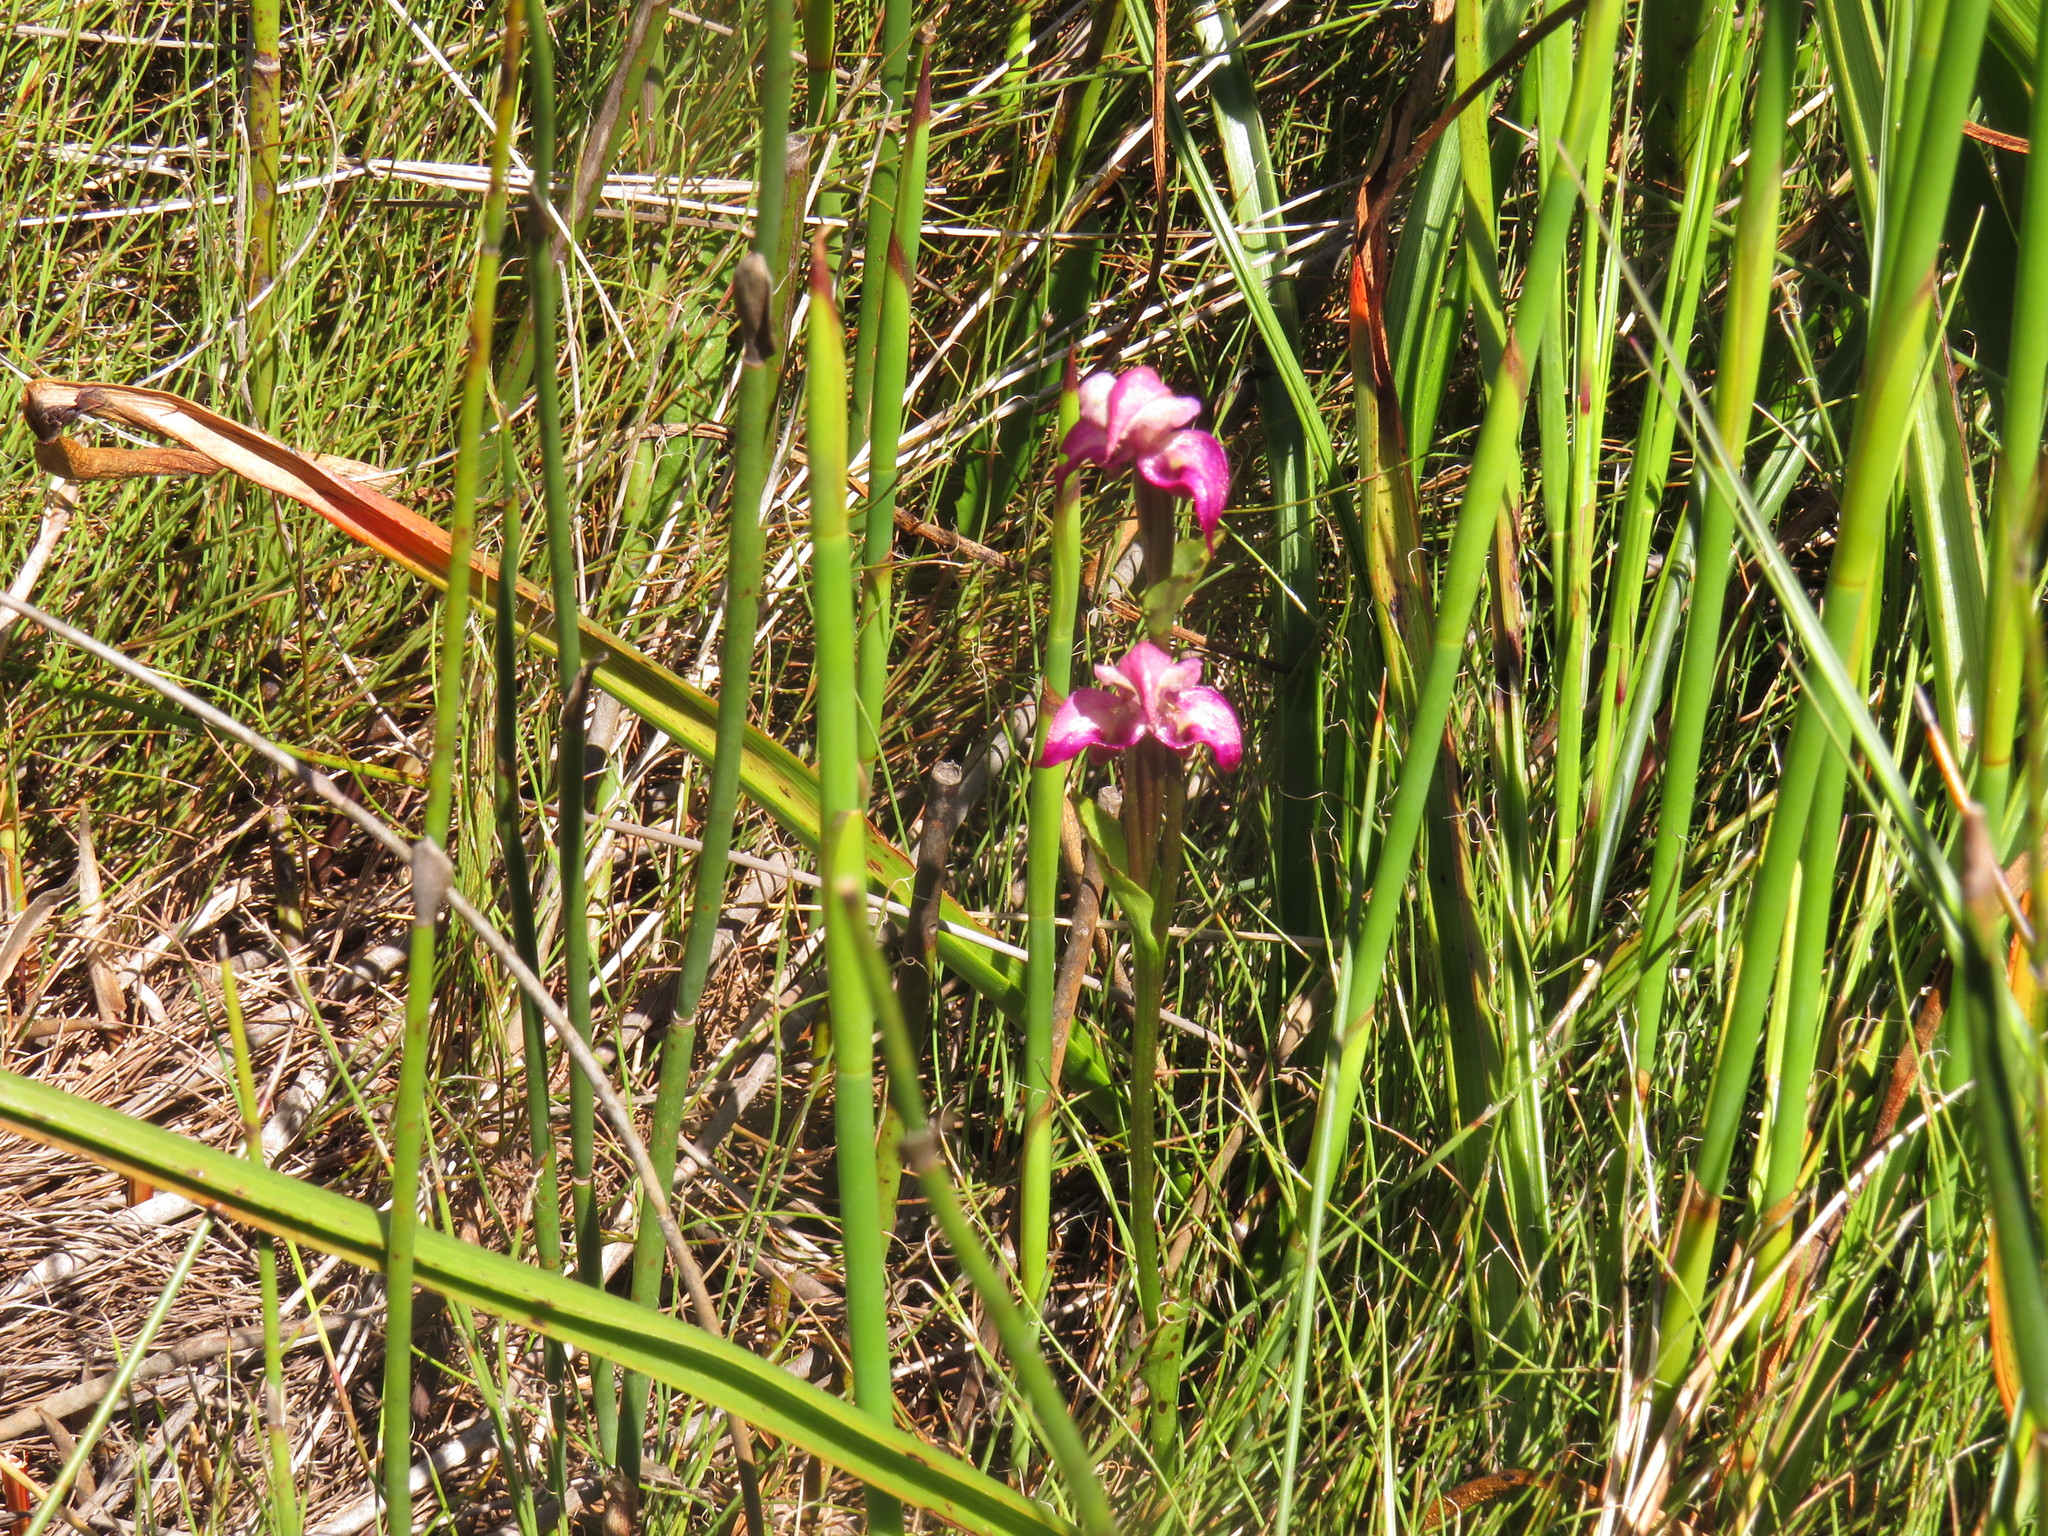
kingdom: Plantae
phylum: Tracheophyta
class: Liliopsida
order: Asparagales
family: Orchidaceae
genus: Disperis
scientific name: Disperis paludosa
